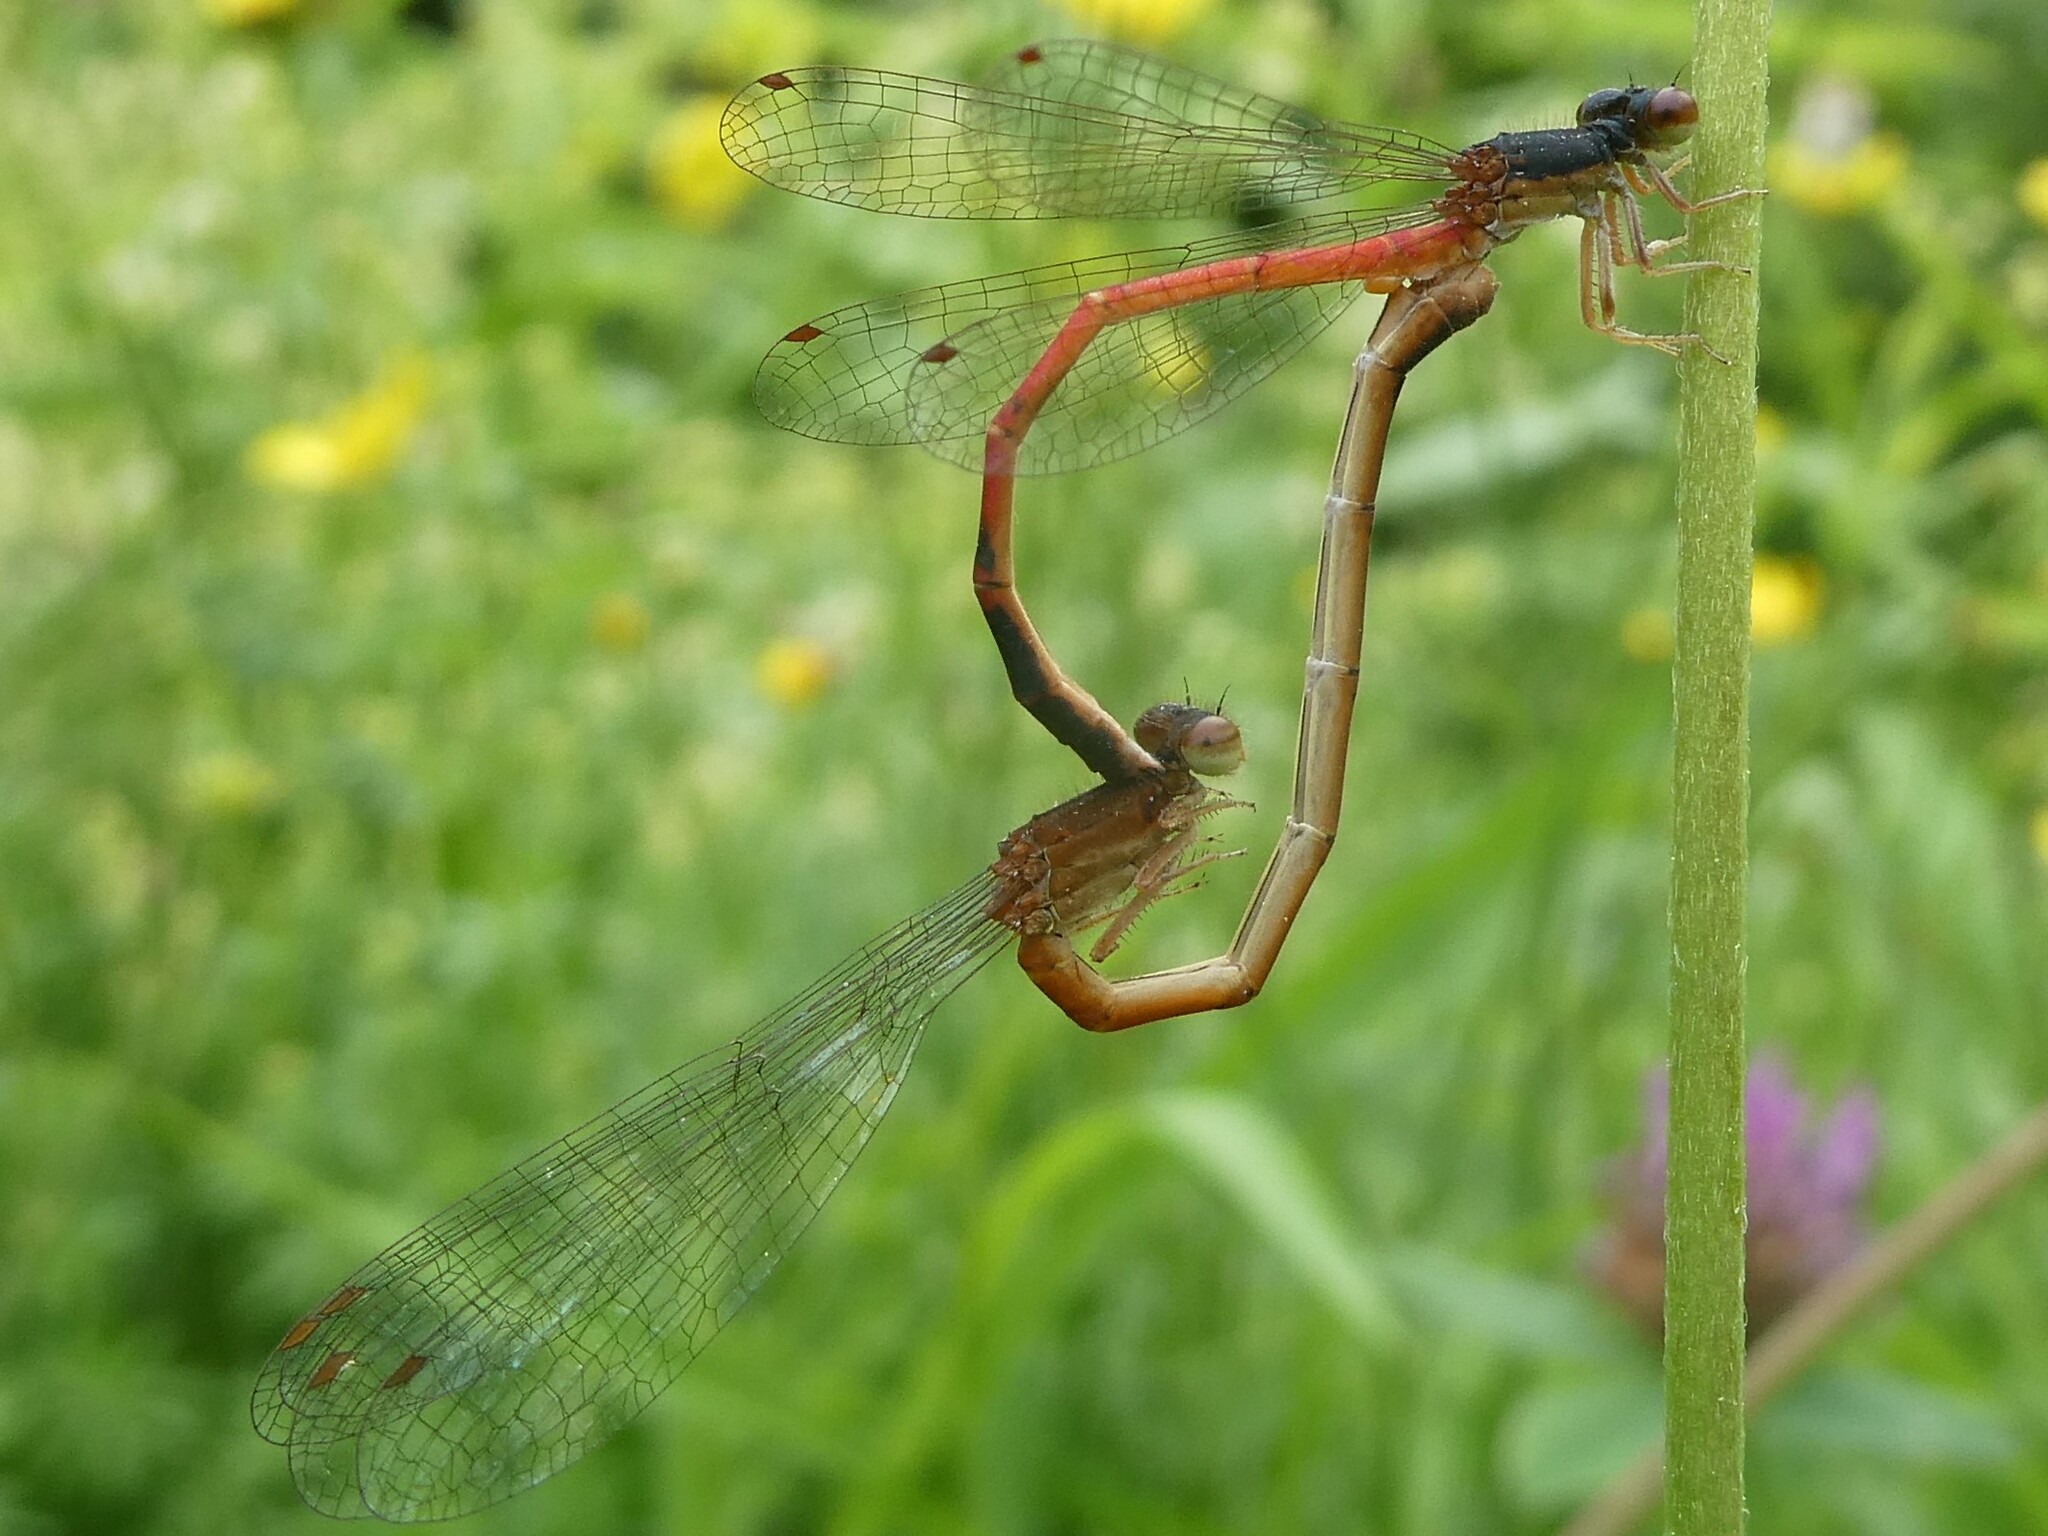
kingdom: Animalia
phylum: Arthropoda
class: Insecta
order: Odonata
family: Coenagrionidae
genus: Amphiagrion
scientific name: Amphiagrion saucium
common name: Eastern red damsel
